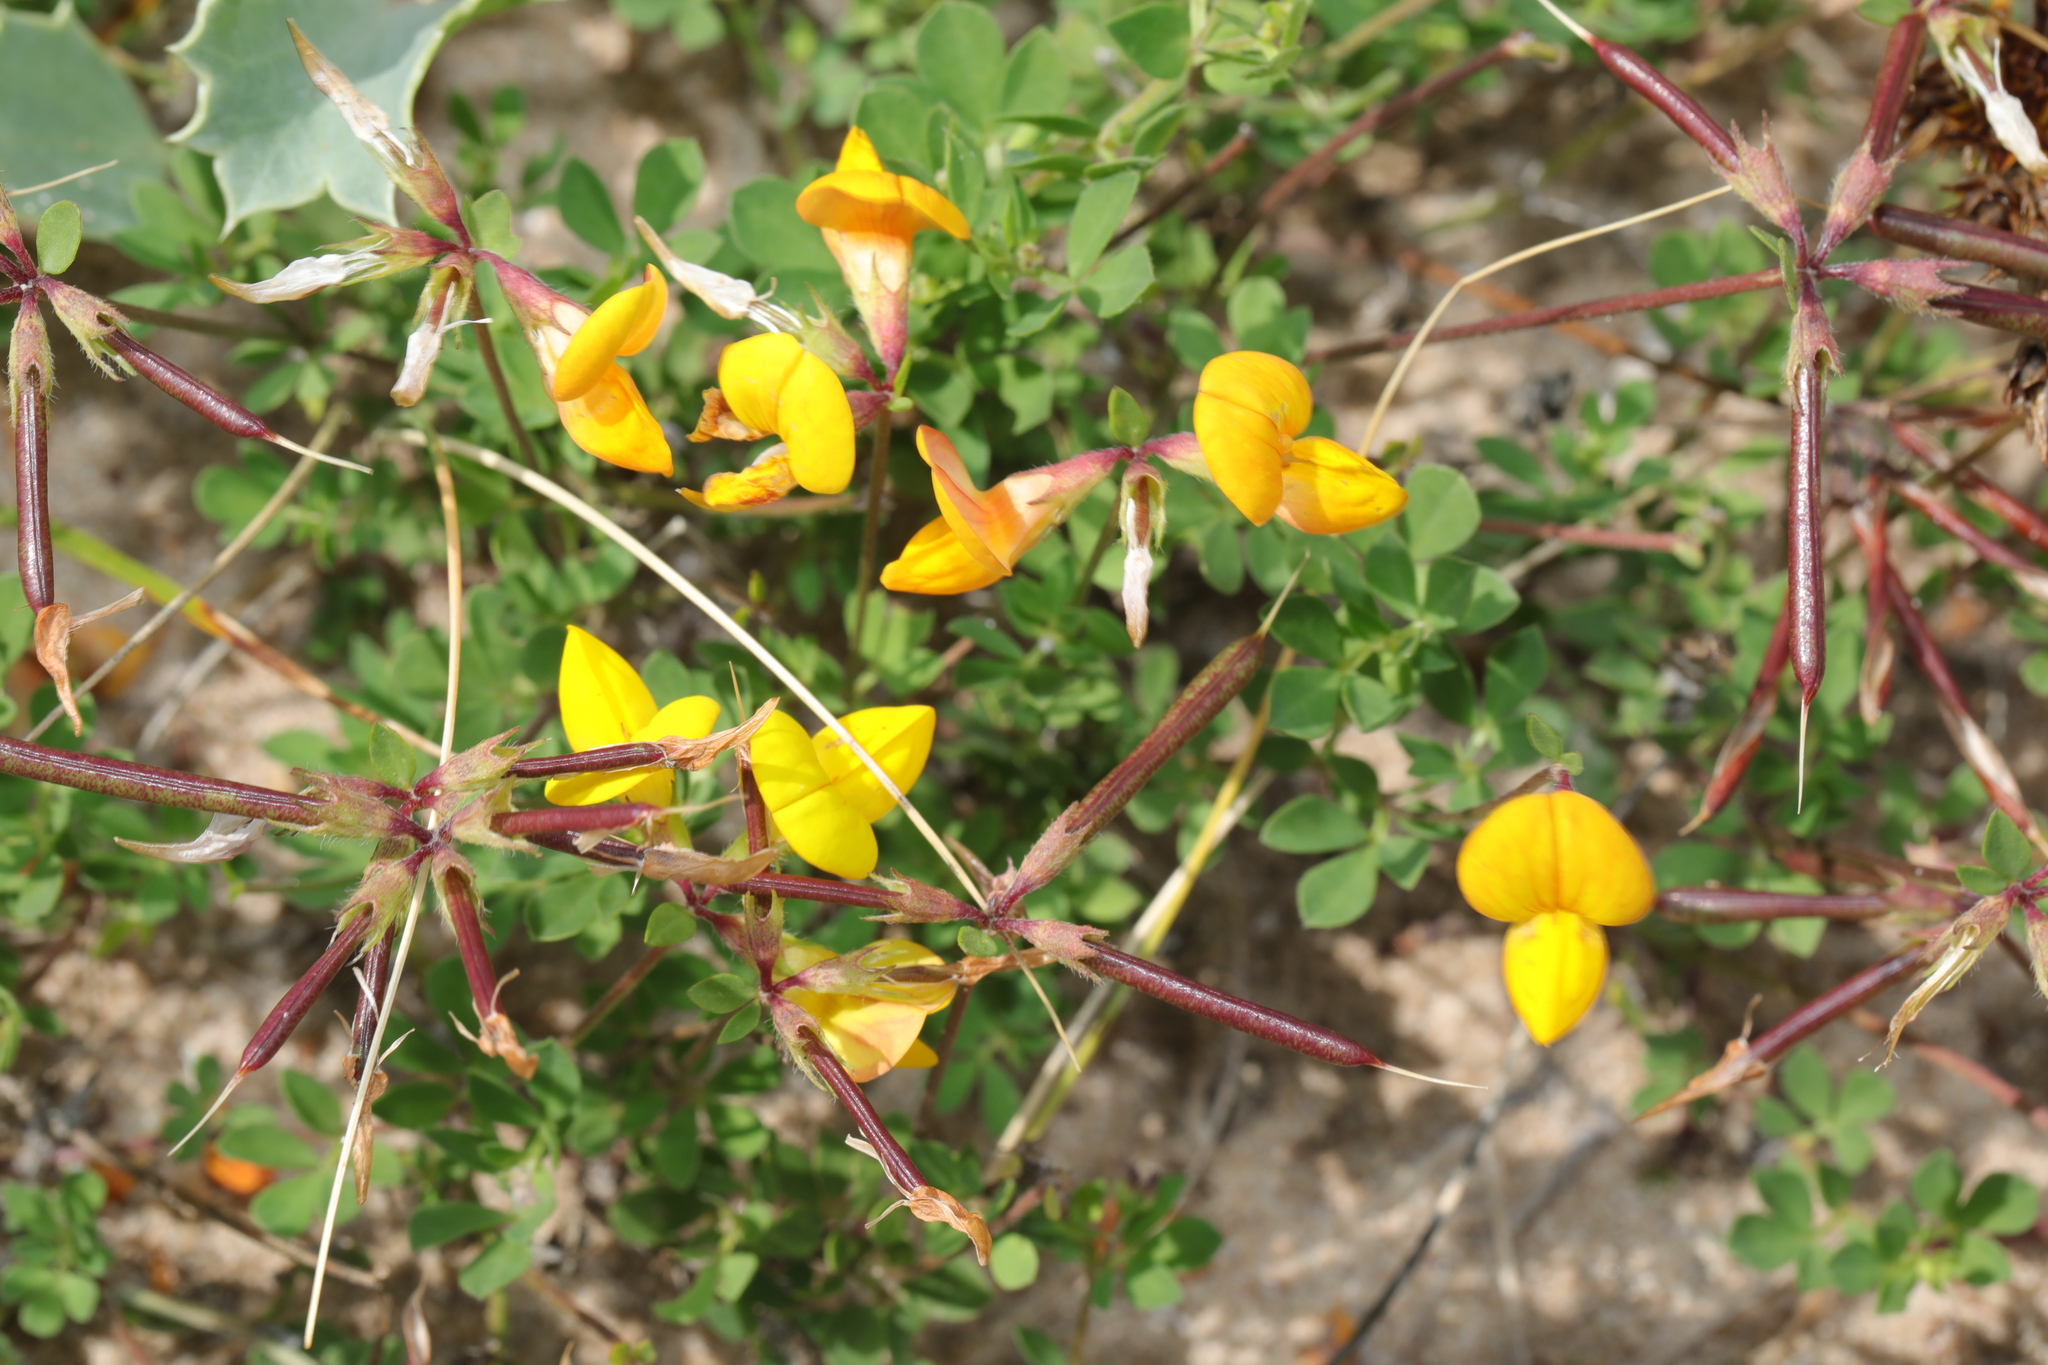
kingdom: Plantae
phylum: Tracheophyta
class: Magnoliopsida
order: Fabales
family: Fabaceae
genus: Lotus
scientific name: Lotus corniculatus
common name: Common bird's-foot-trefoil
